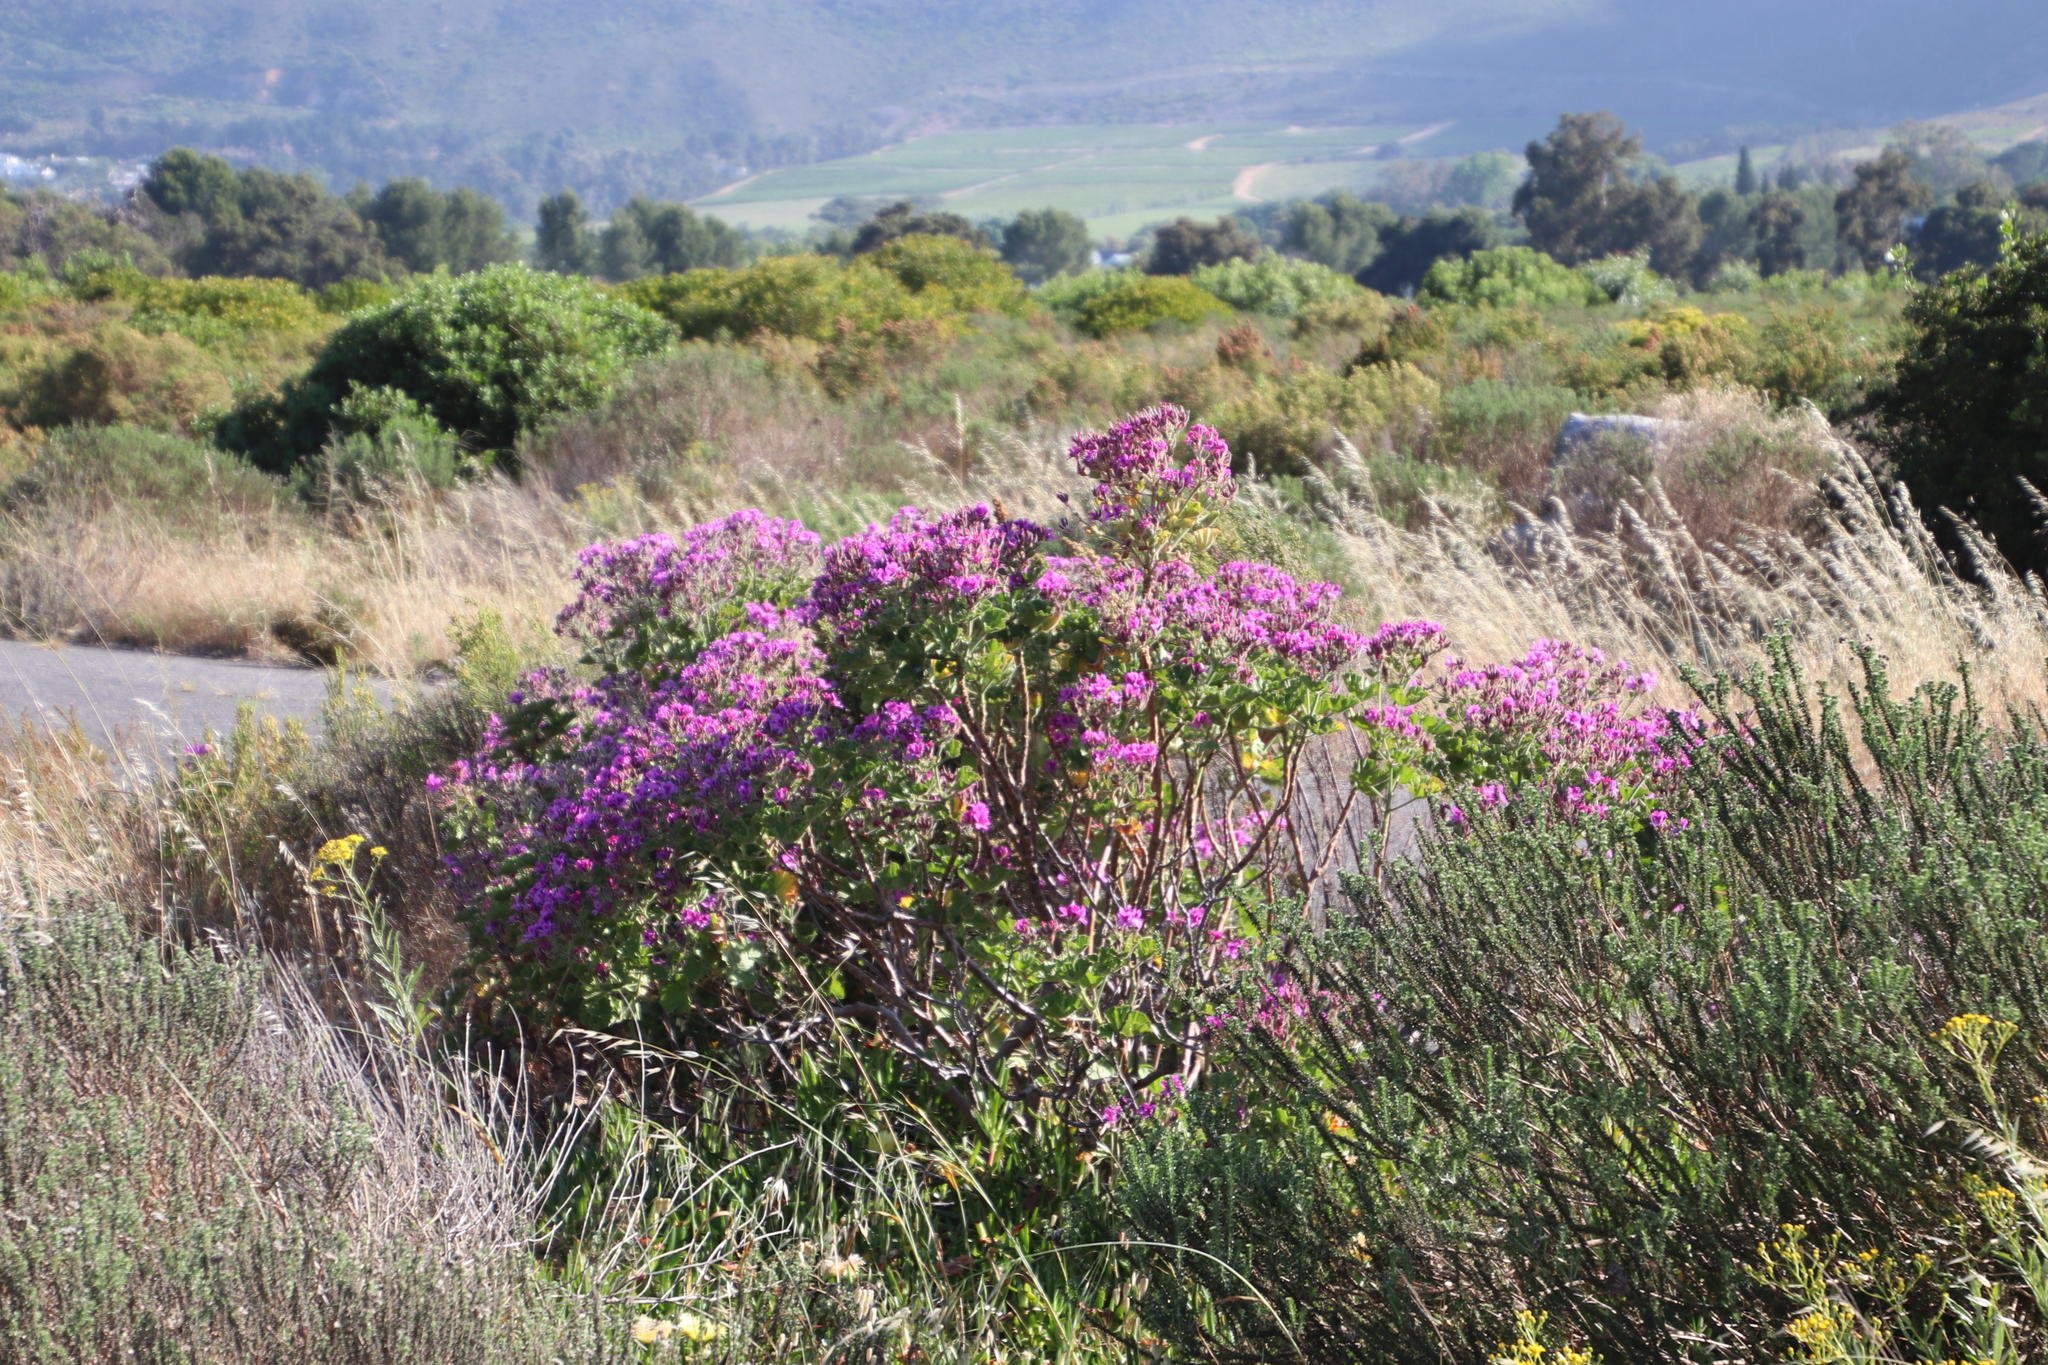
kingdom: Plantae
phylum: Tracheophyta
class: Magnoliopsida
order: Geraniales
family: Geraniaceae
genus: Pelargonium
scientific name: Pelargonium cucullatum
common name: Tree pelargonium
